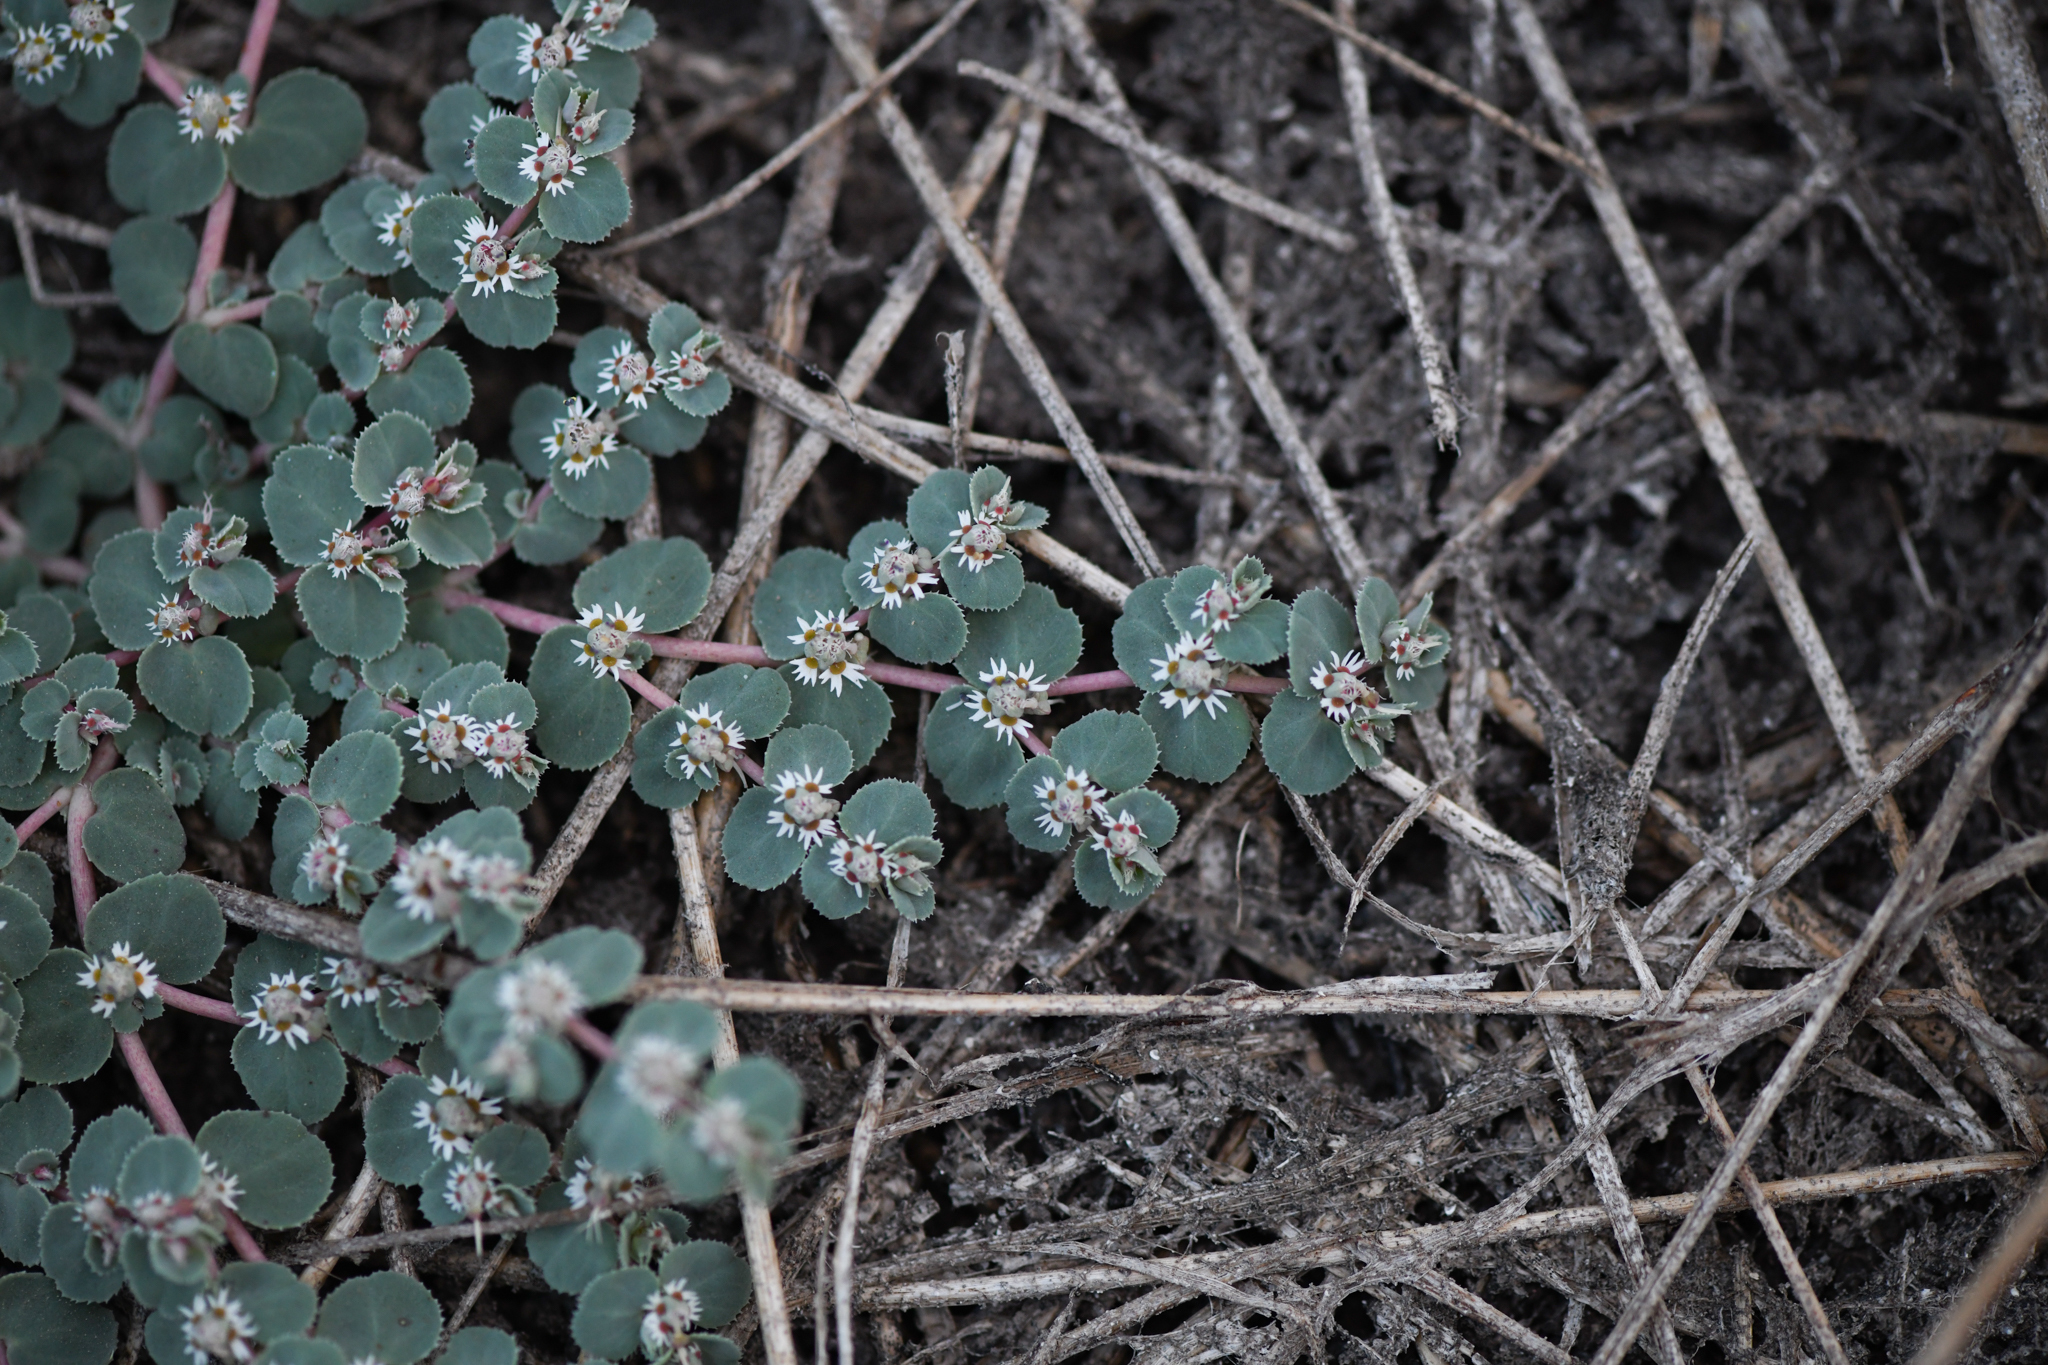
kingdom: Plantae
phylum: Tracheophyta
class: Magnoliopsida
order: Malpighiales
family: Euphorbiaceae
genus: Euphorbia
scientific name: Euphorbia hooveri
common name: Hoover's spurge
